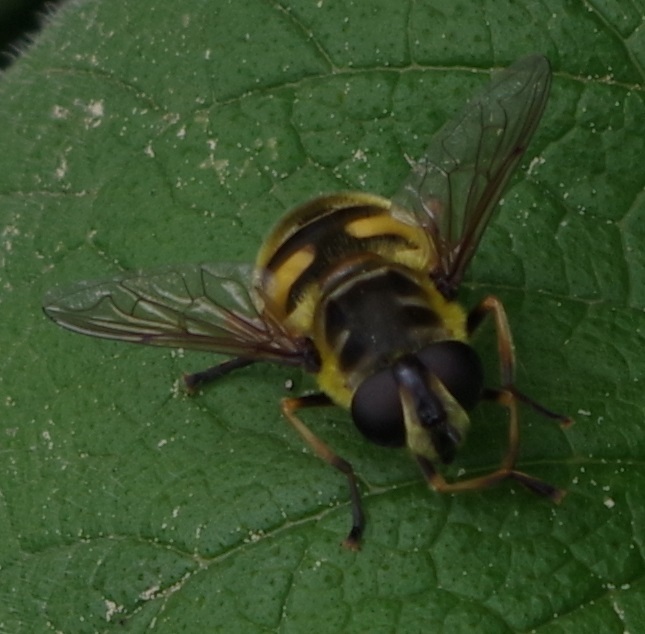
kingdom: Animalia
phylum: Arthropoda
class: Insecta
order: Diptera
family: Syrphidae
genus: Myathropa
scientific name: Myathropa florea
